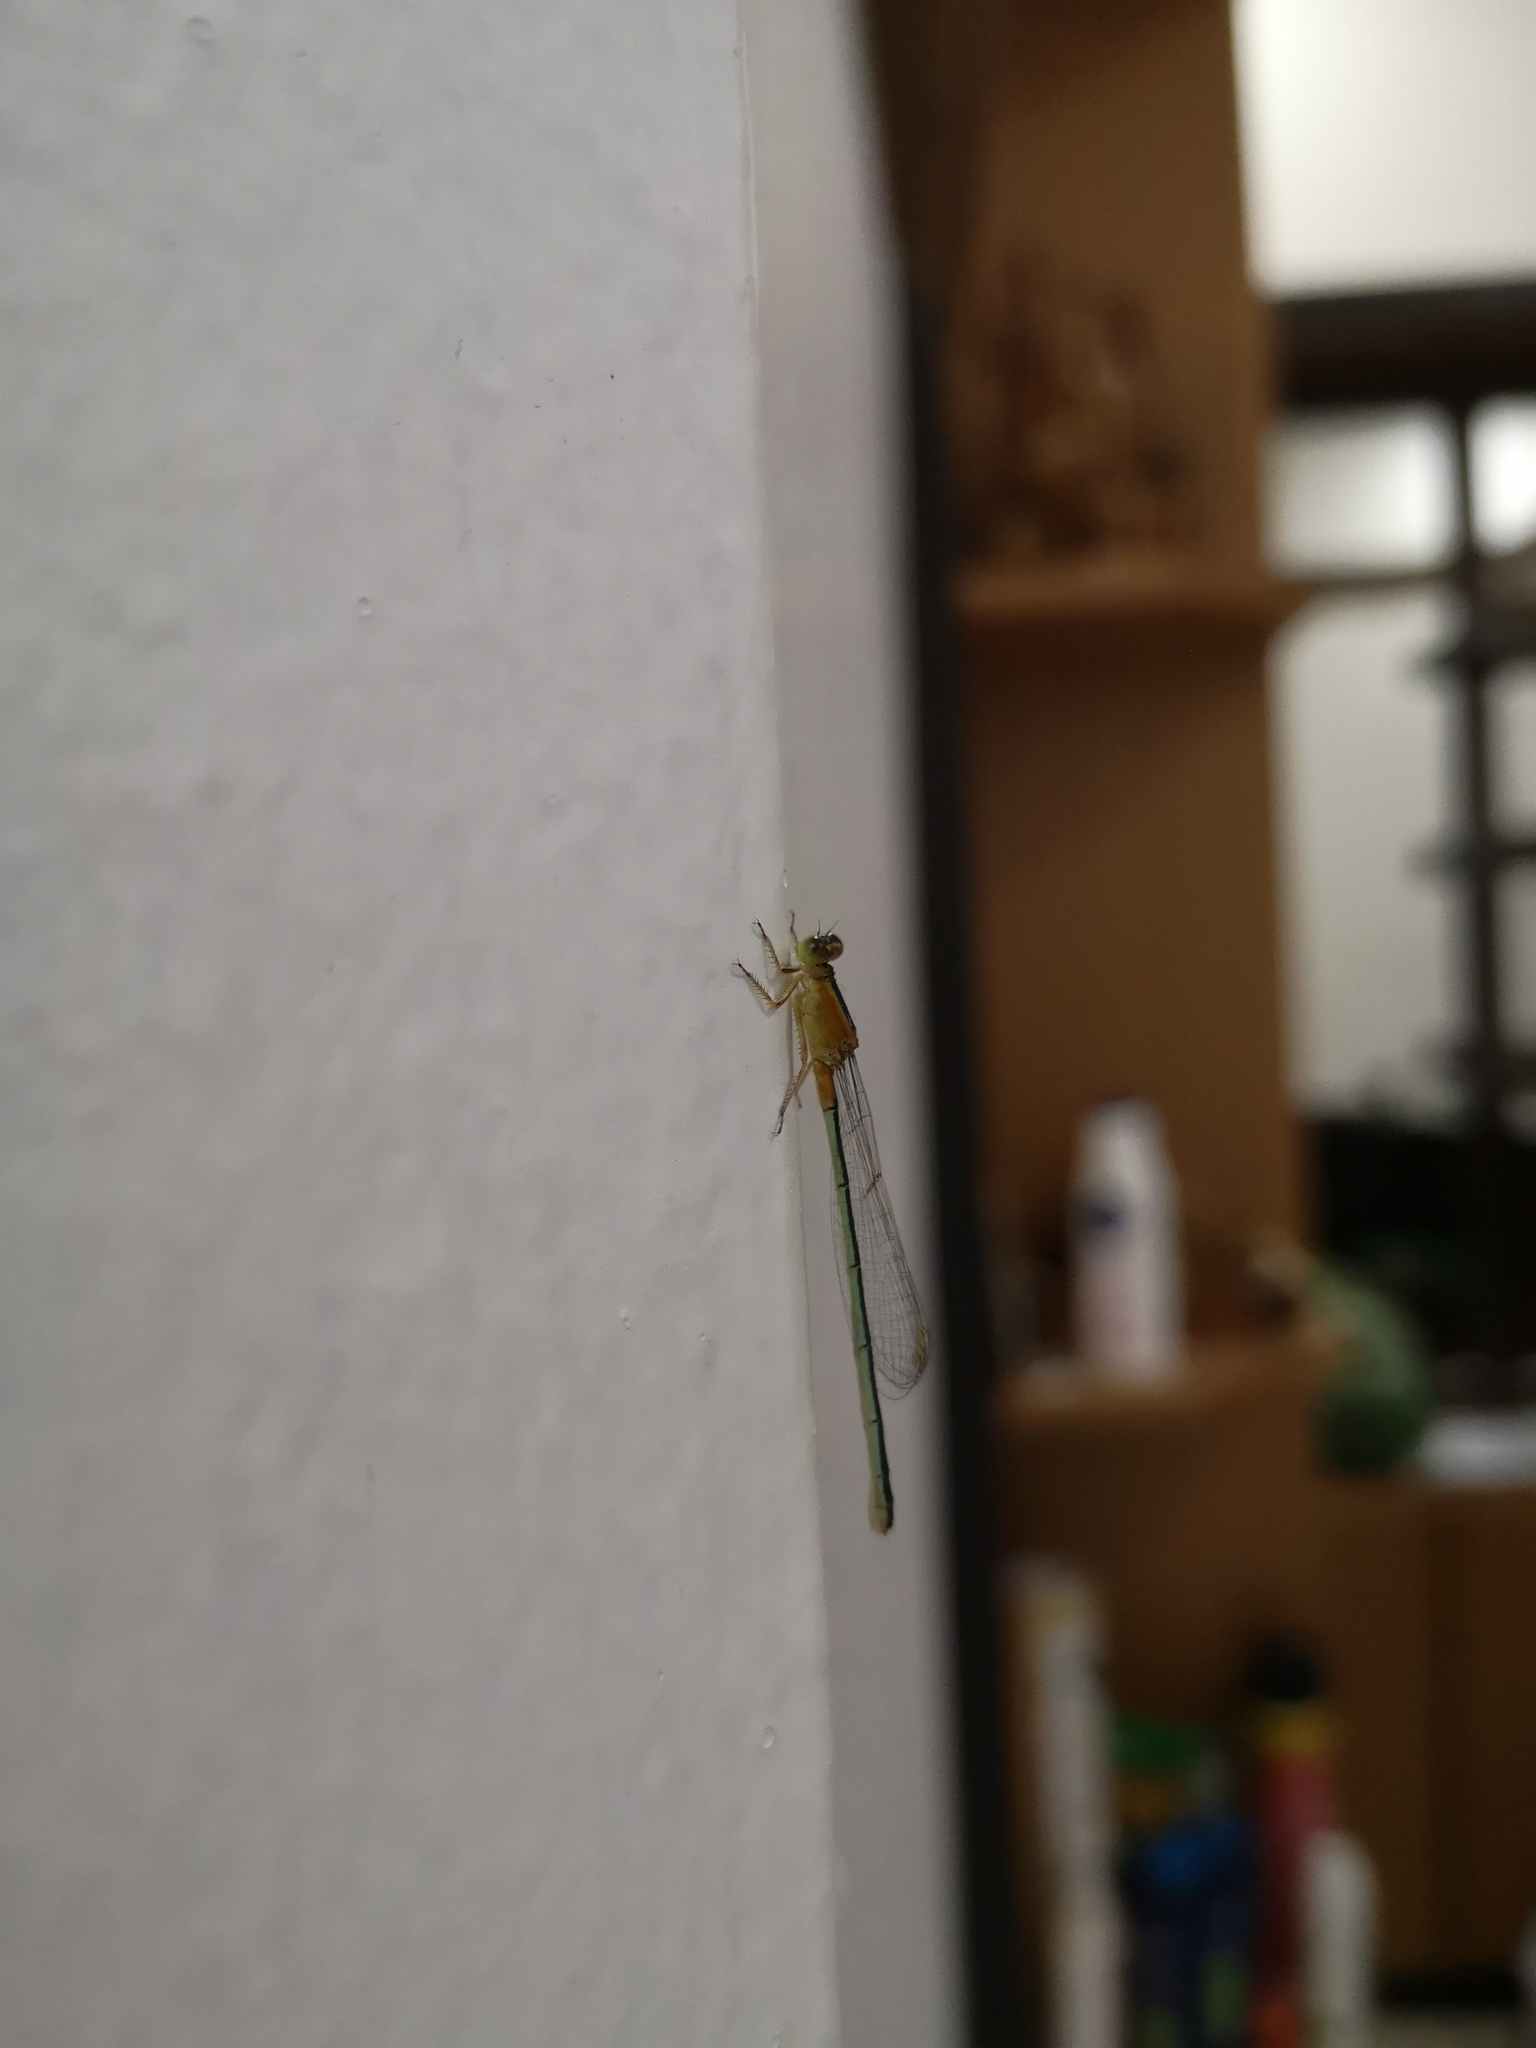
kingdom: Animalia
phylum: Arthropoda
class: Insecta
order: Odonata
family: Coenagrionidae
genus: Ischnura
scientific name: Ischnura senegalensis
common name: Tropical bluetail
